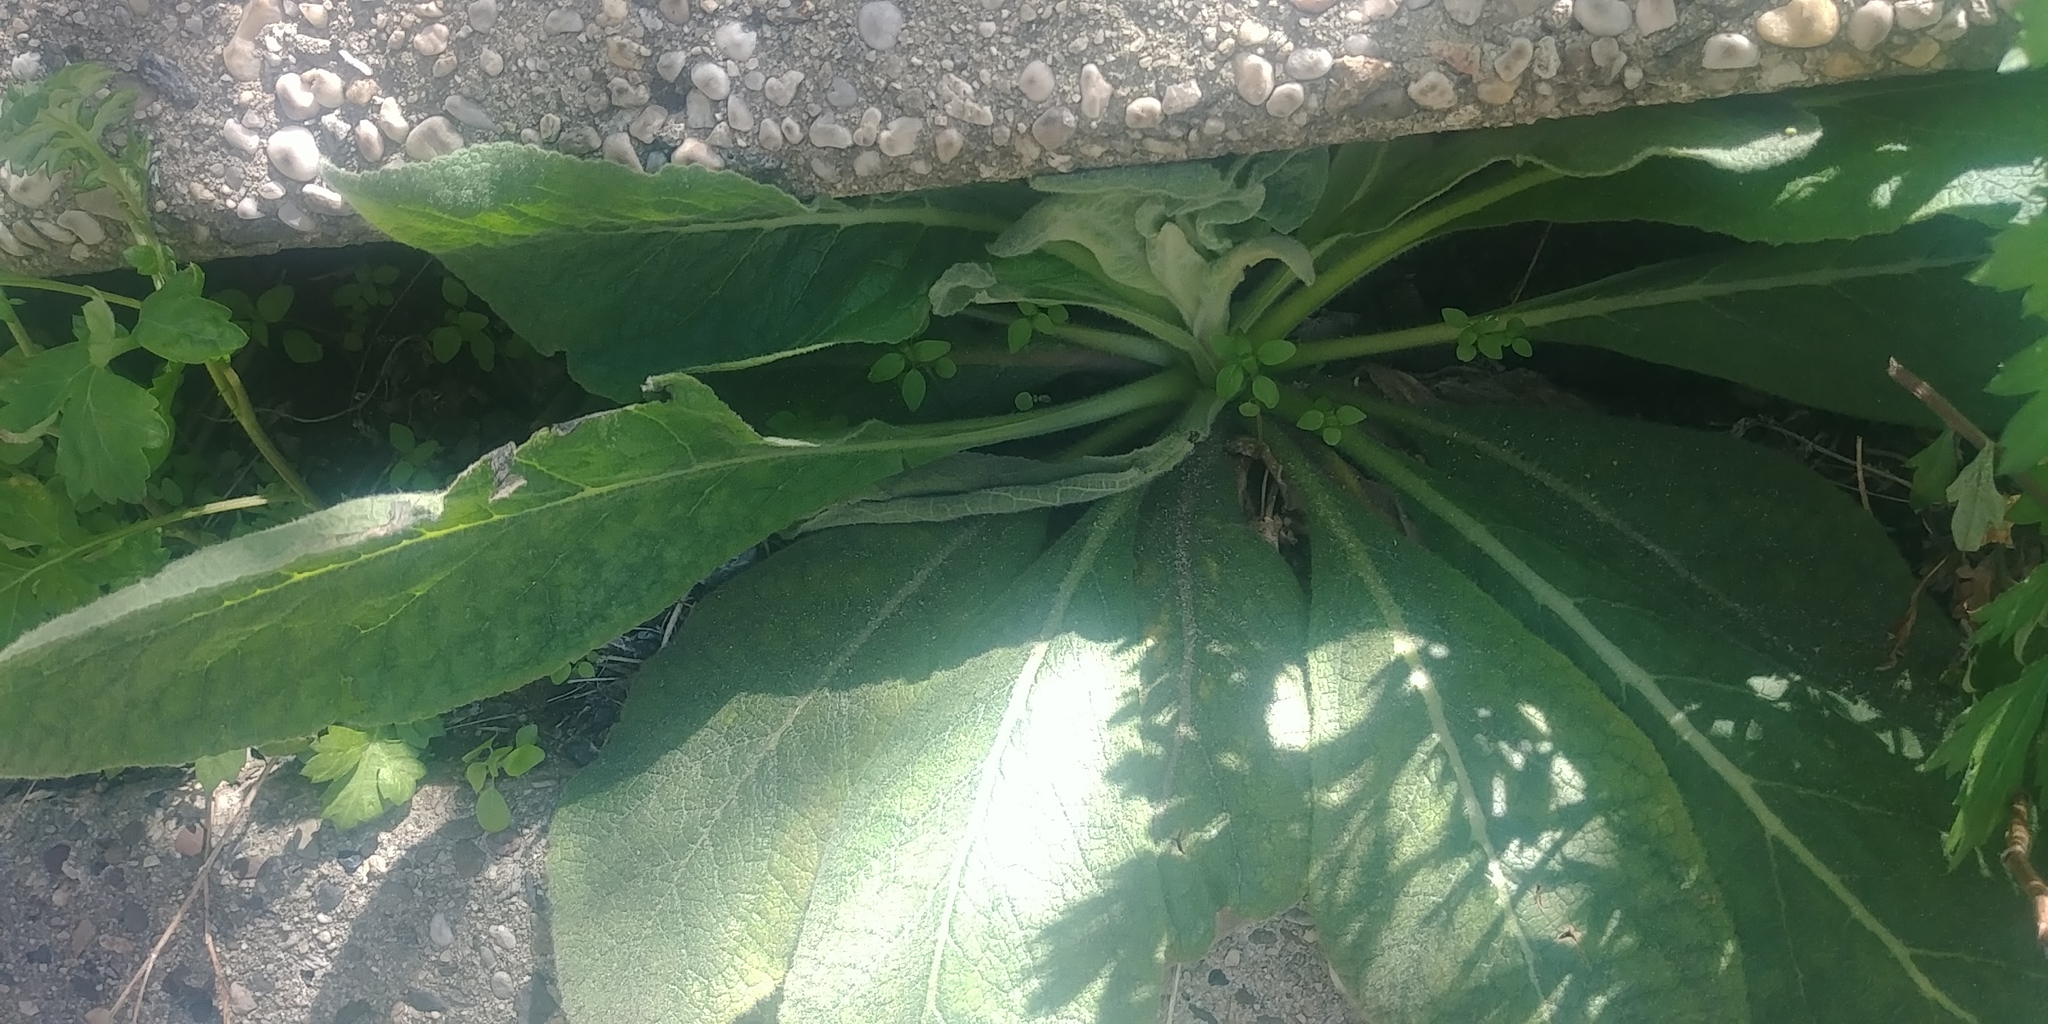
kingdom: Plantae
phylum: Tracheophyta
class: Magnoliopsida
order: Lamiales
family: Scrophulariaceae
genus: Verbascum
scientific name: Verbascum thapsus
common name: Common mullein
